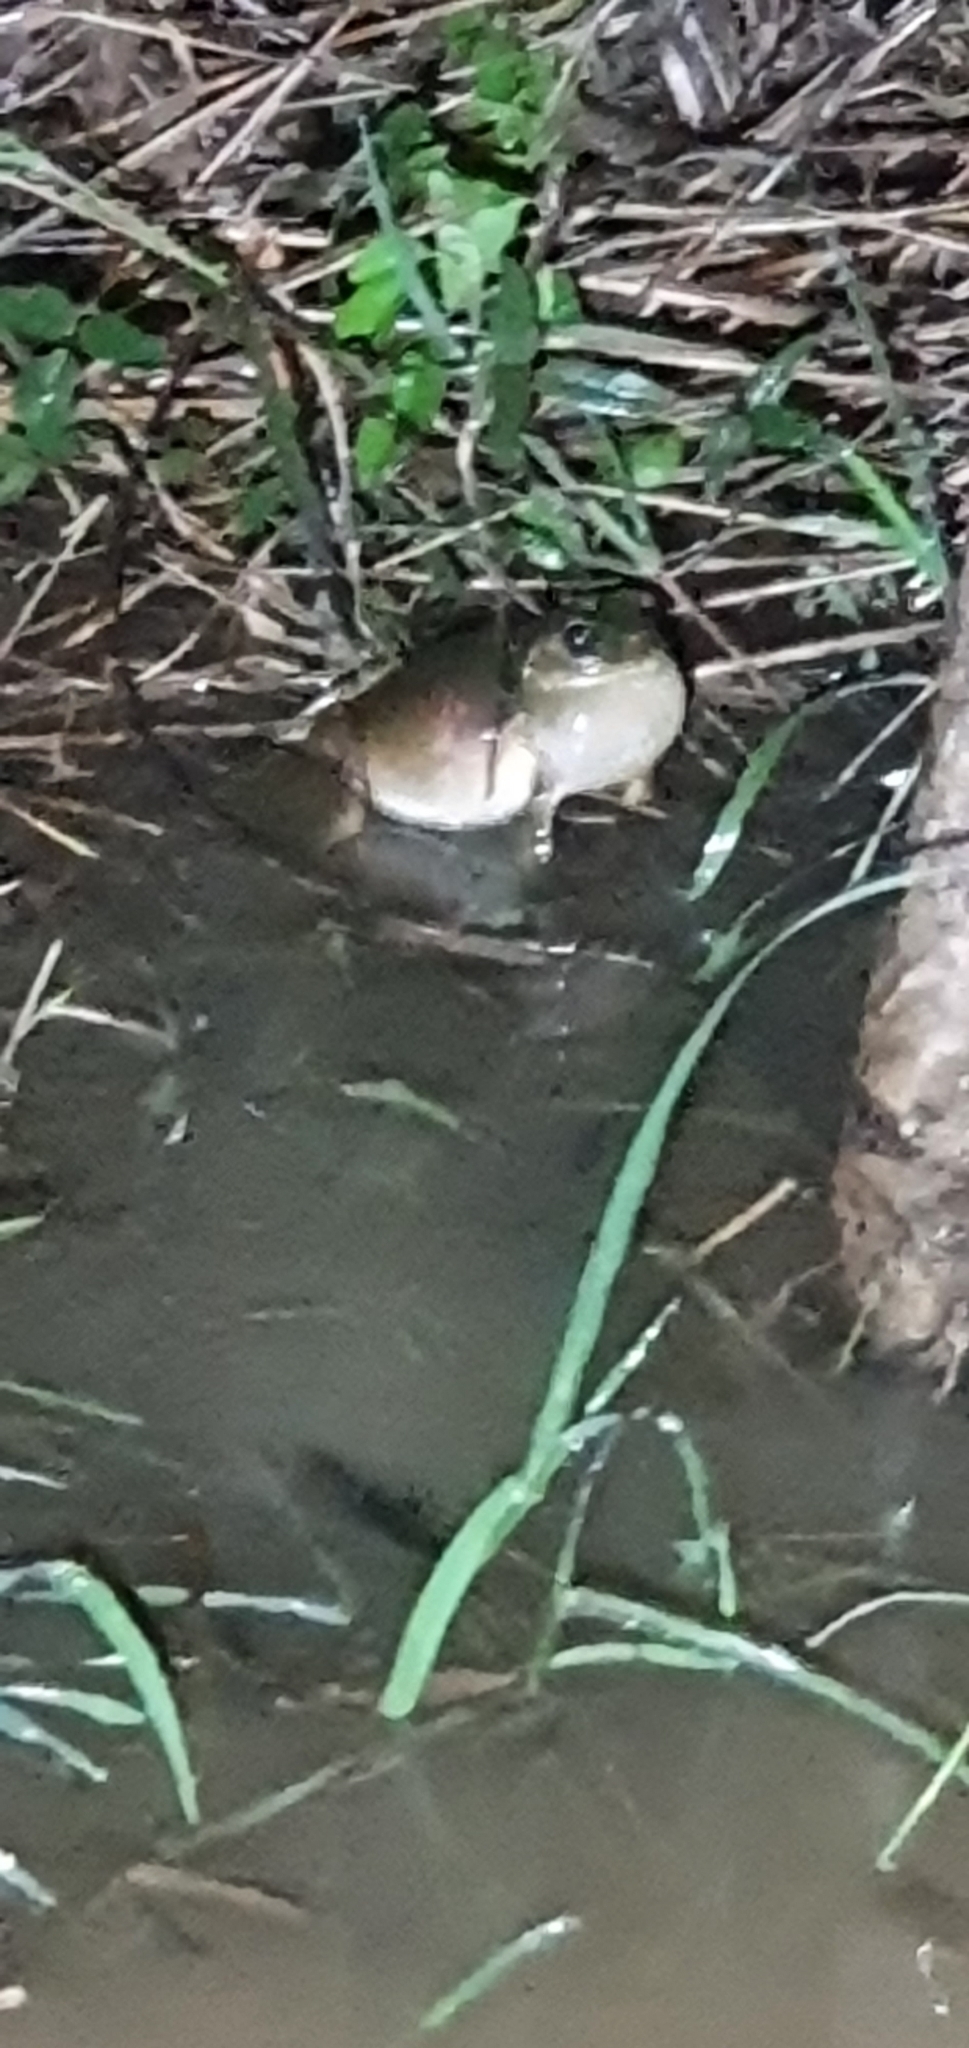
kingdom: Animalia
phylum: Chordata
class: Amphibia
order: Anura
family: Pelodryadidae
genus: Ranoidea
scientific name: Ranoidea caerulea
